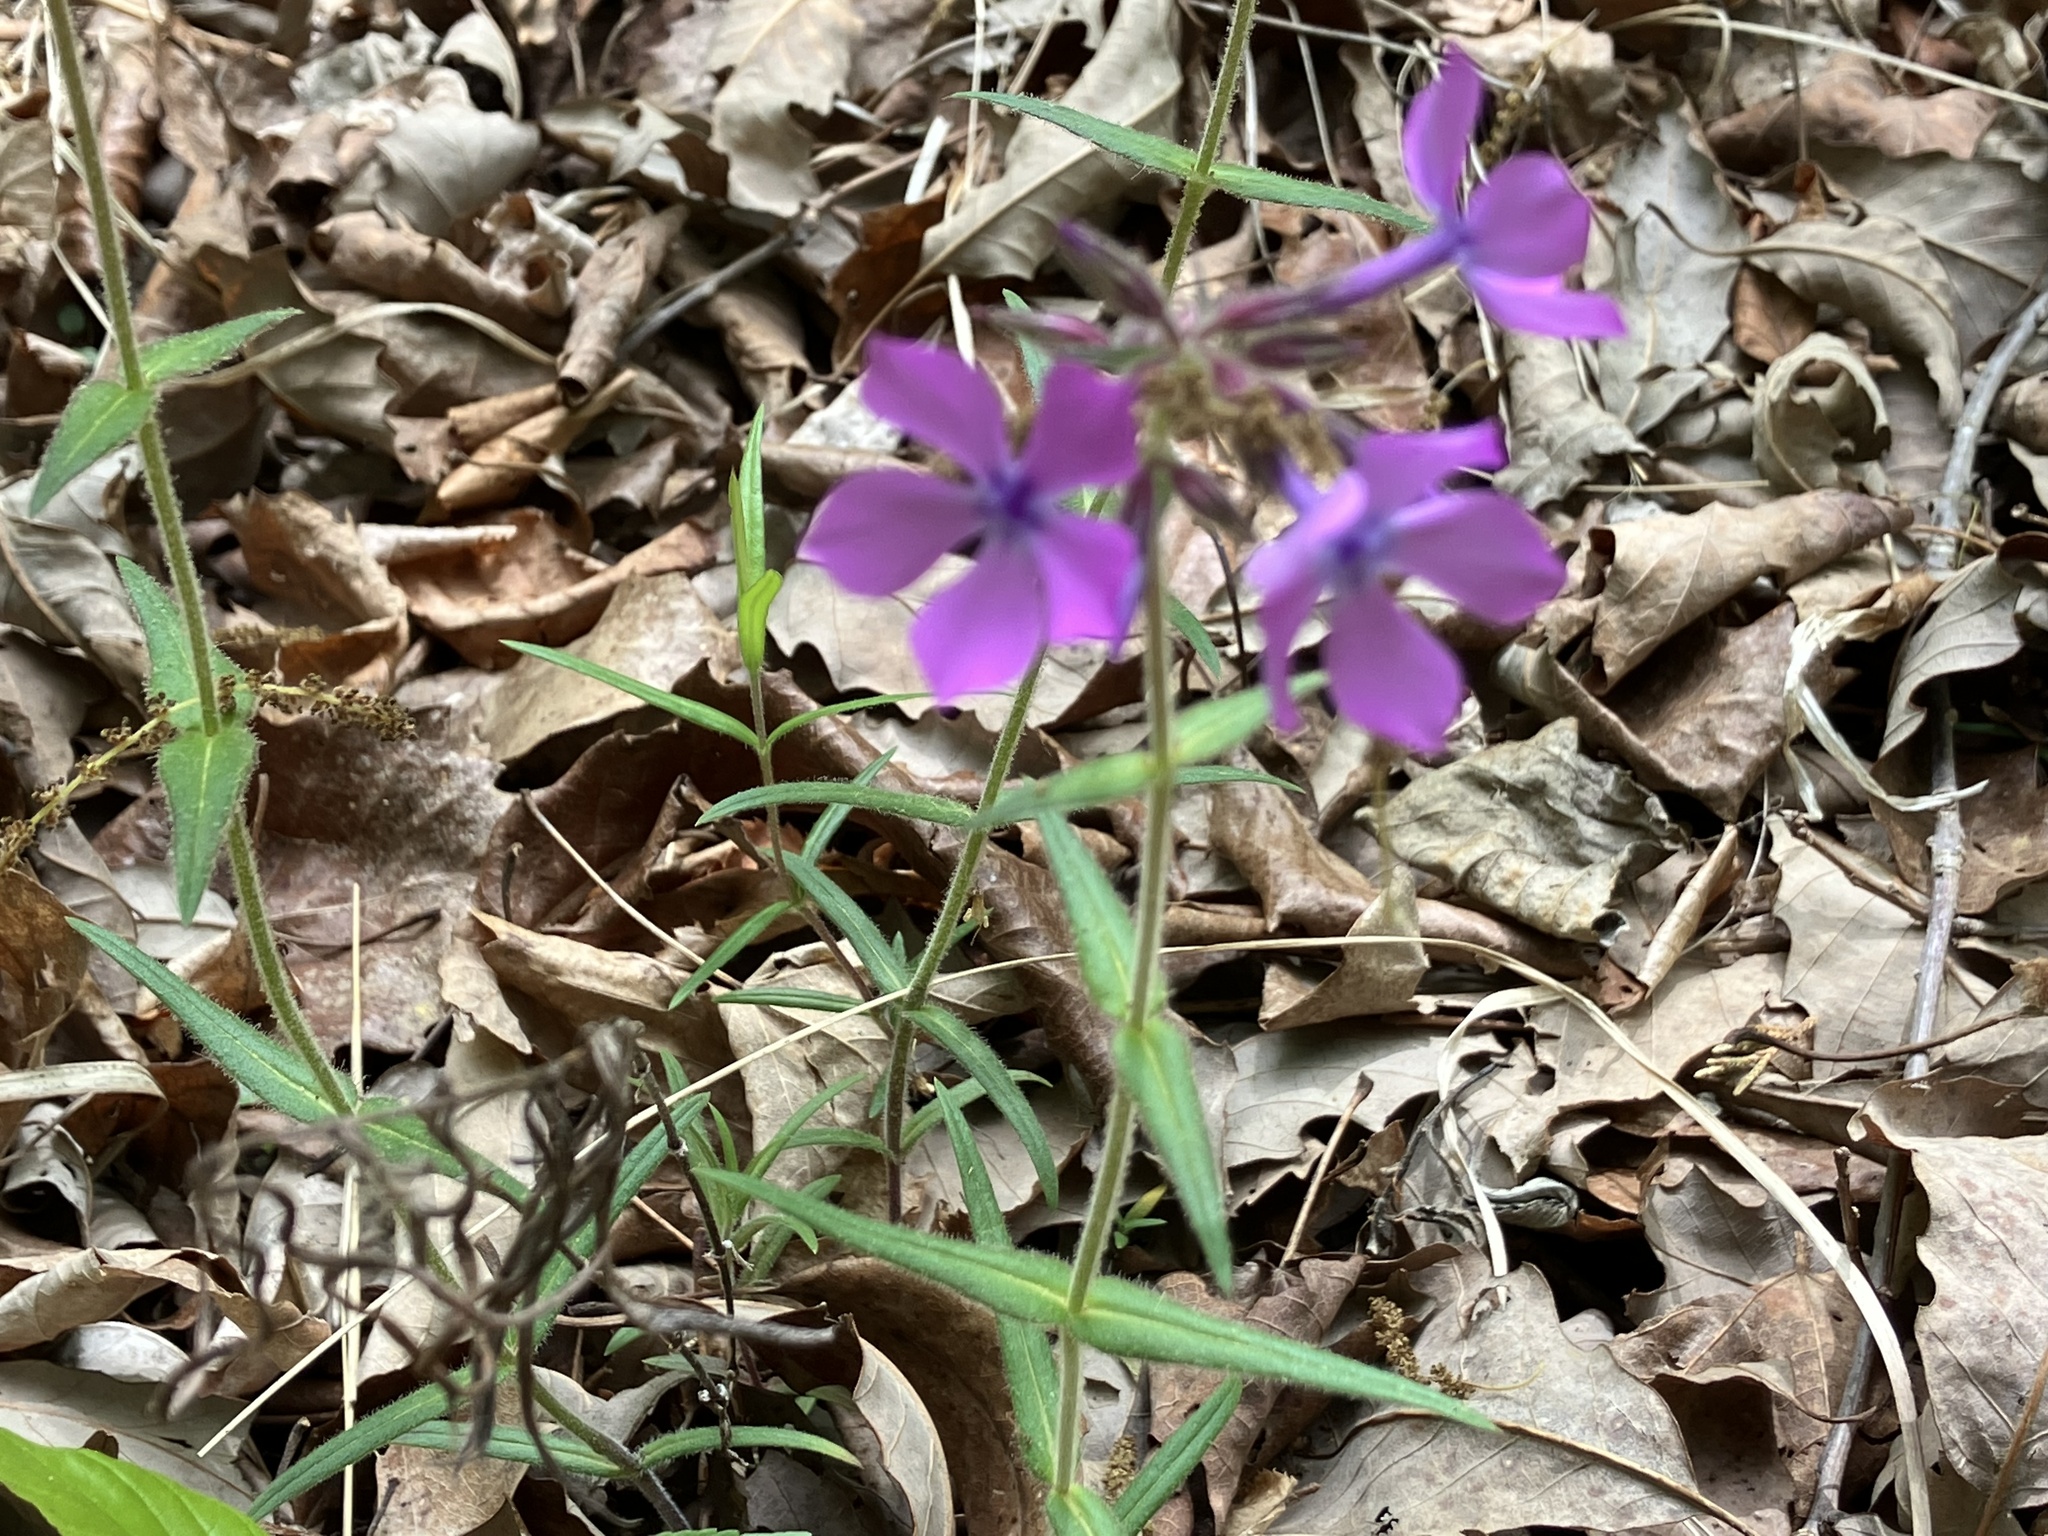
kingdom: Plantae
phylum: Tracheophyta
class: Magnoliopsida
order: Ericales
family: Polemoniaceae
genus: Phlox
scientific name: Phlox pilosa
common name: Prairie phlox
